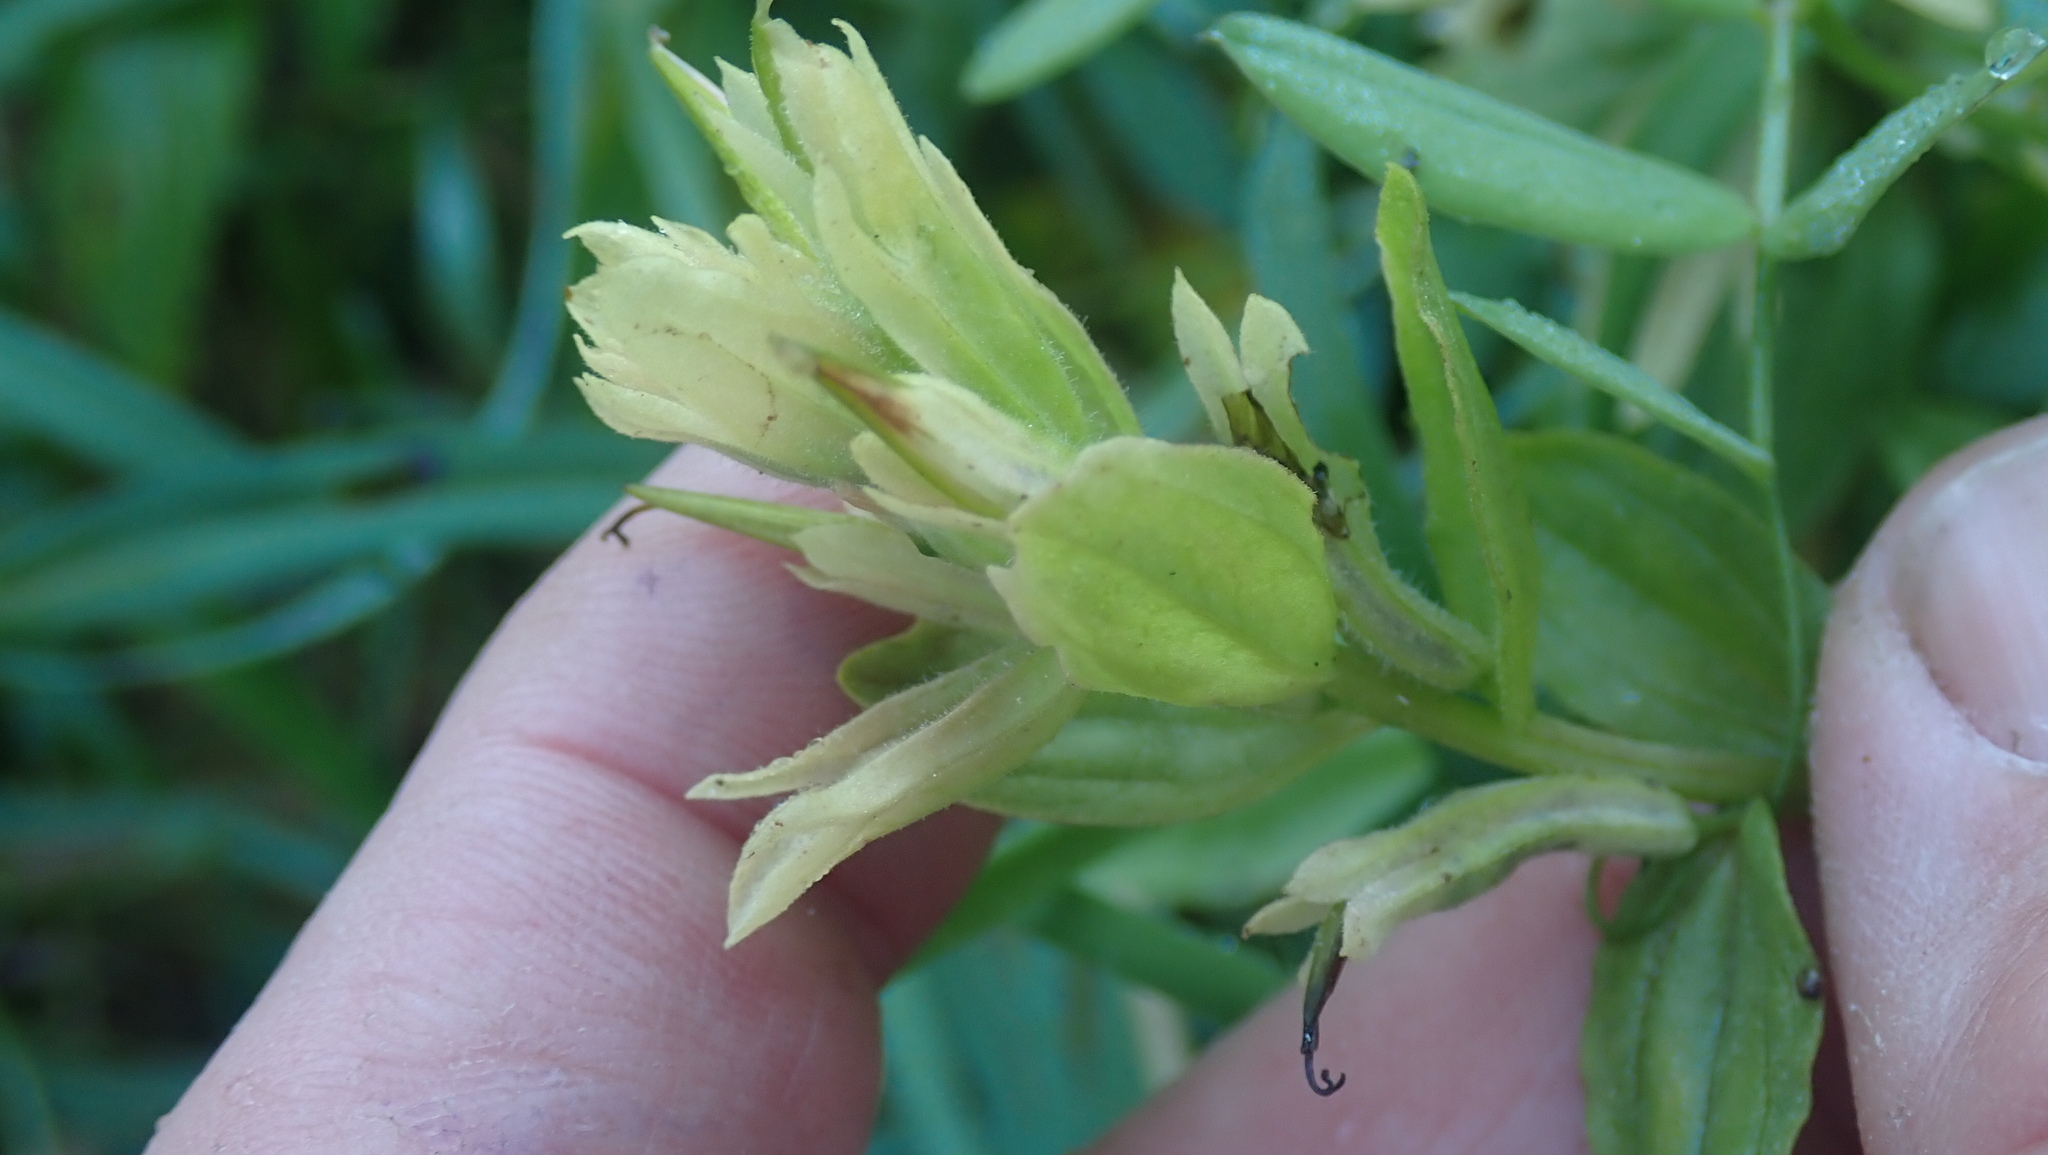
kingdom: Plantae
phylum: Tracheophyta
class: Magnoliopsida
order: Lamiales
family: Orobanchaceae
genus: Castilleja
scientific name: Castilleja unalaschcensis
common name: Unalaska paintbrush
